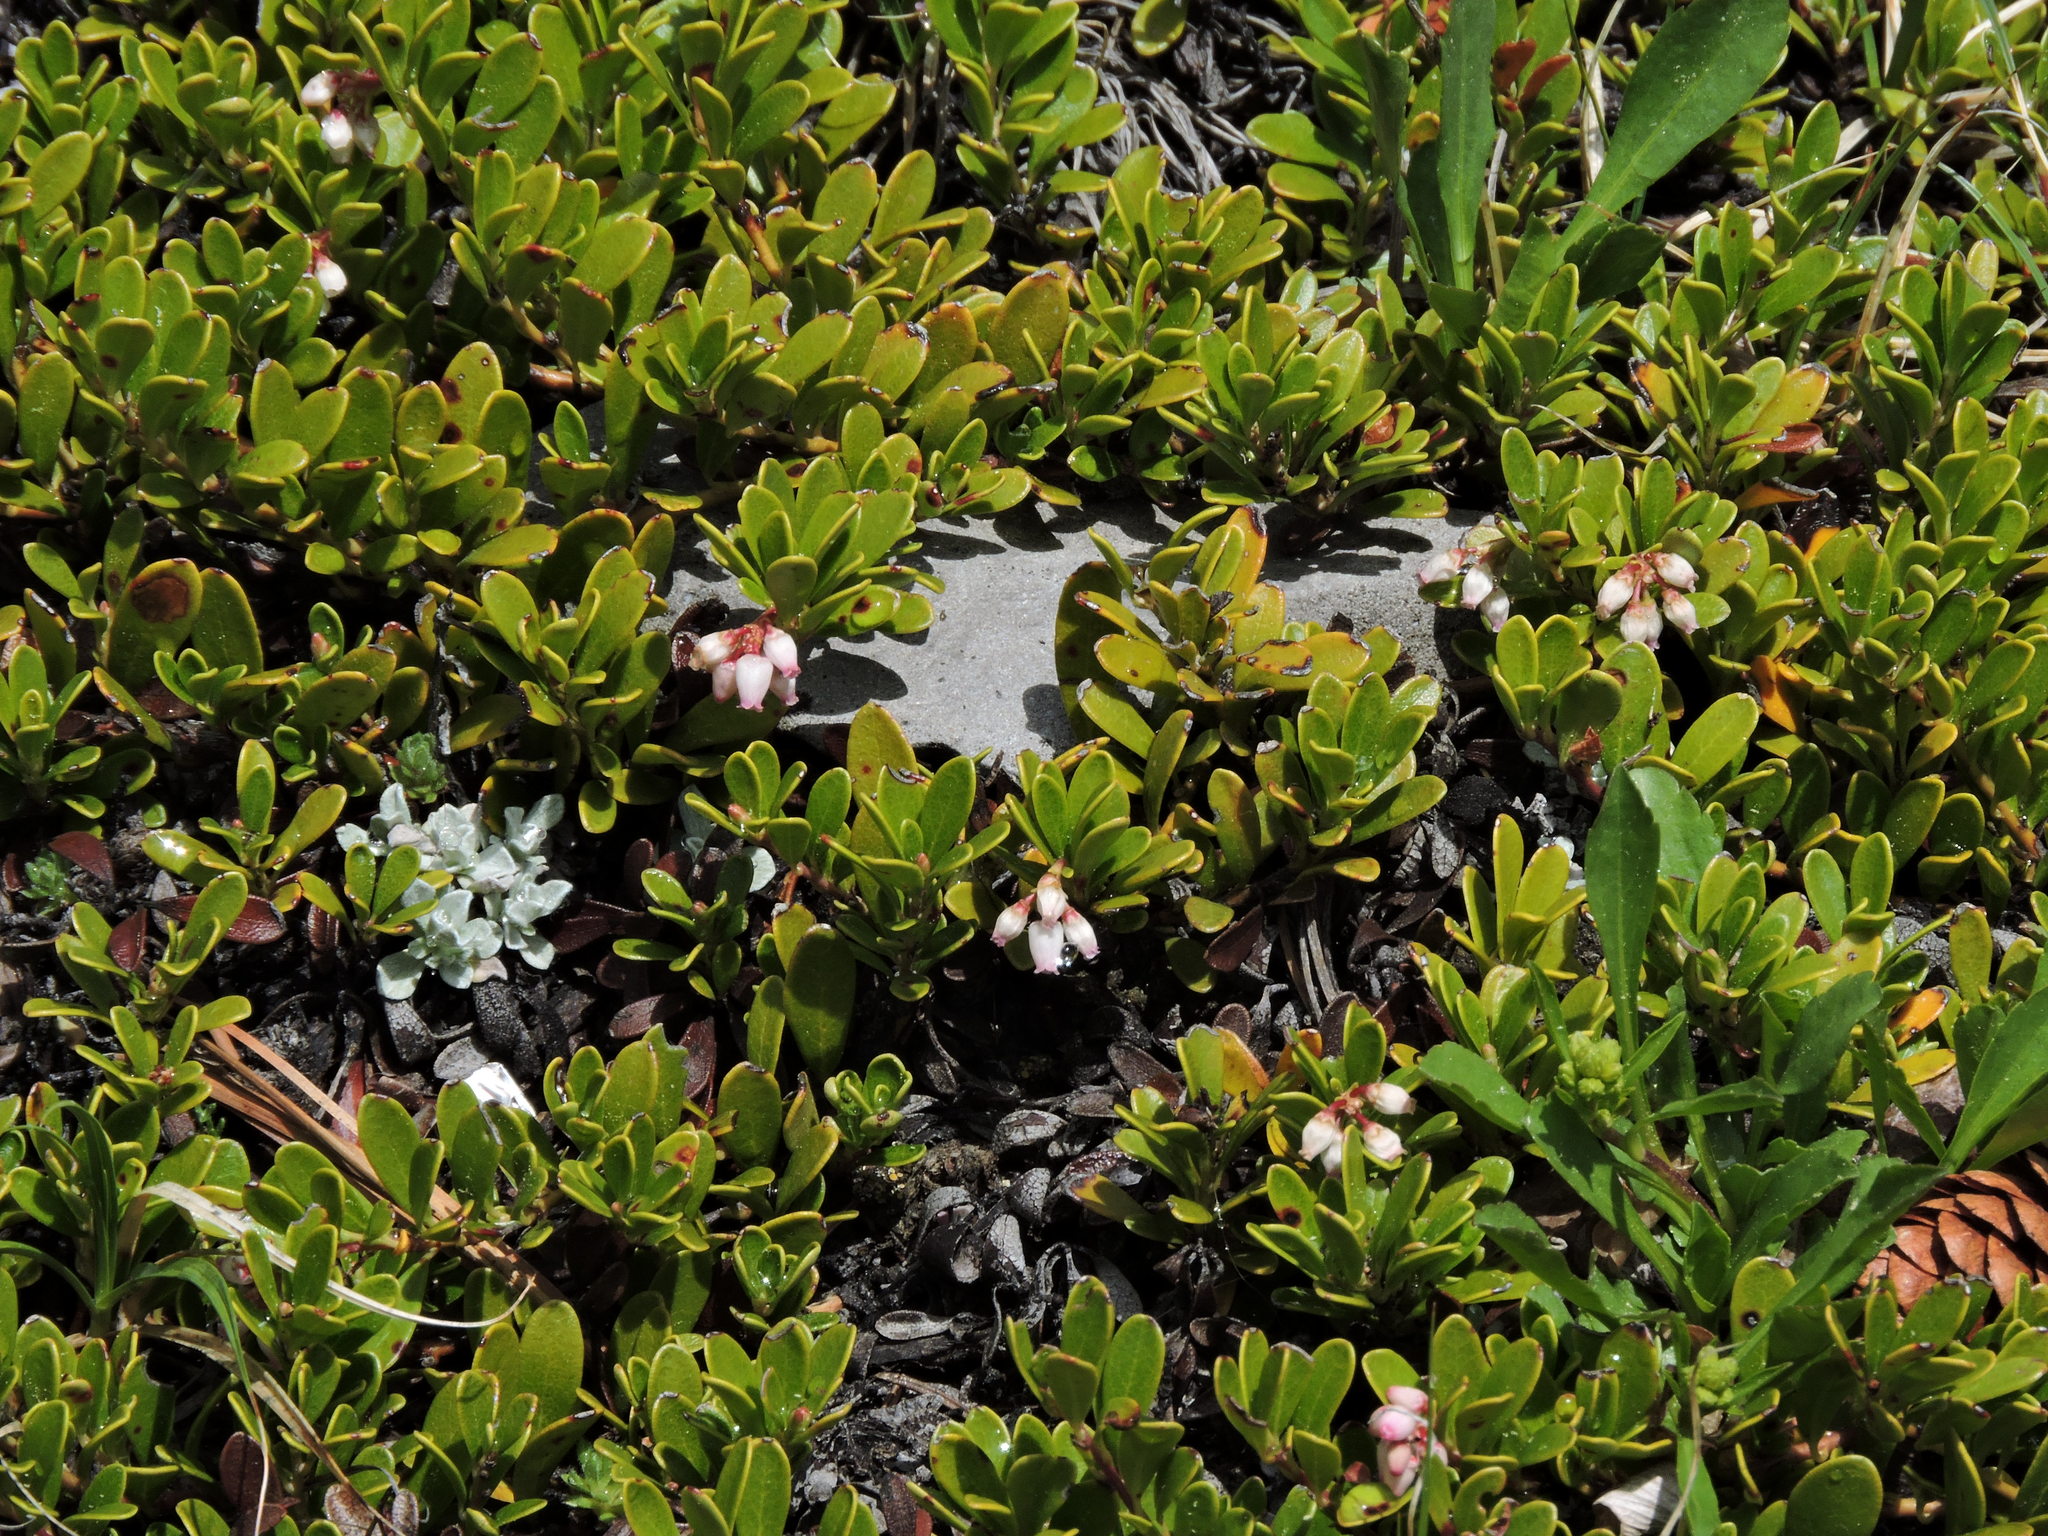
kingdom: Plantae
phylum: Tracheophyta
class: Magnoliopsida
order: Ericales
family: Ericaceae
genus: Arctostaphylos
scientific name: Arctostaphylos uva-ursi
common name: Bearberry
